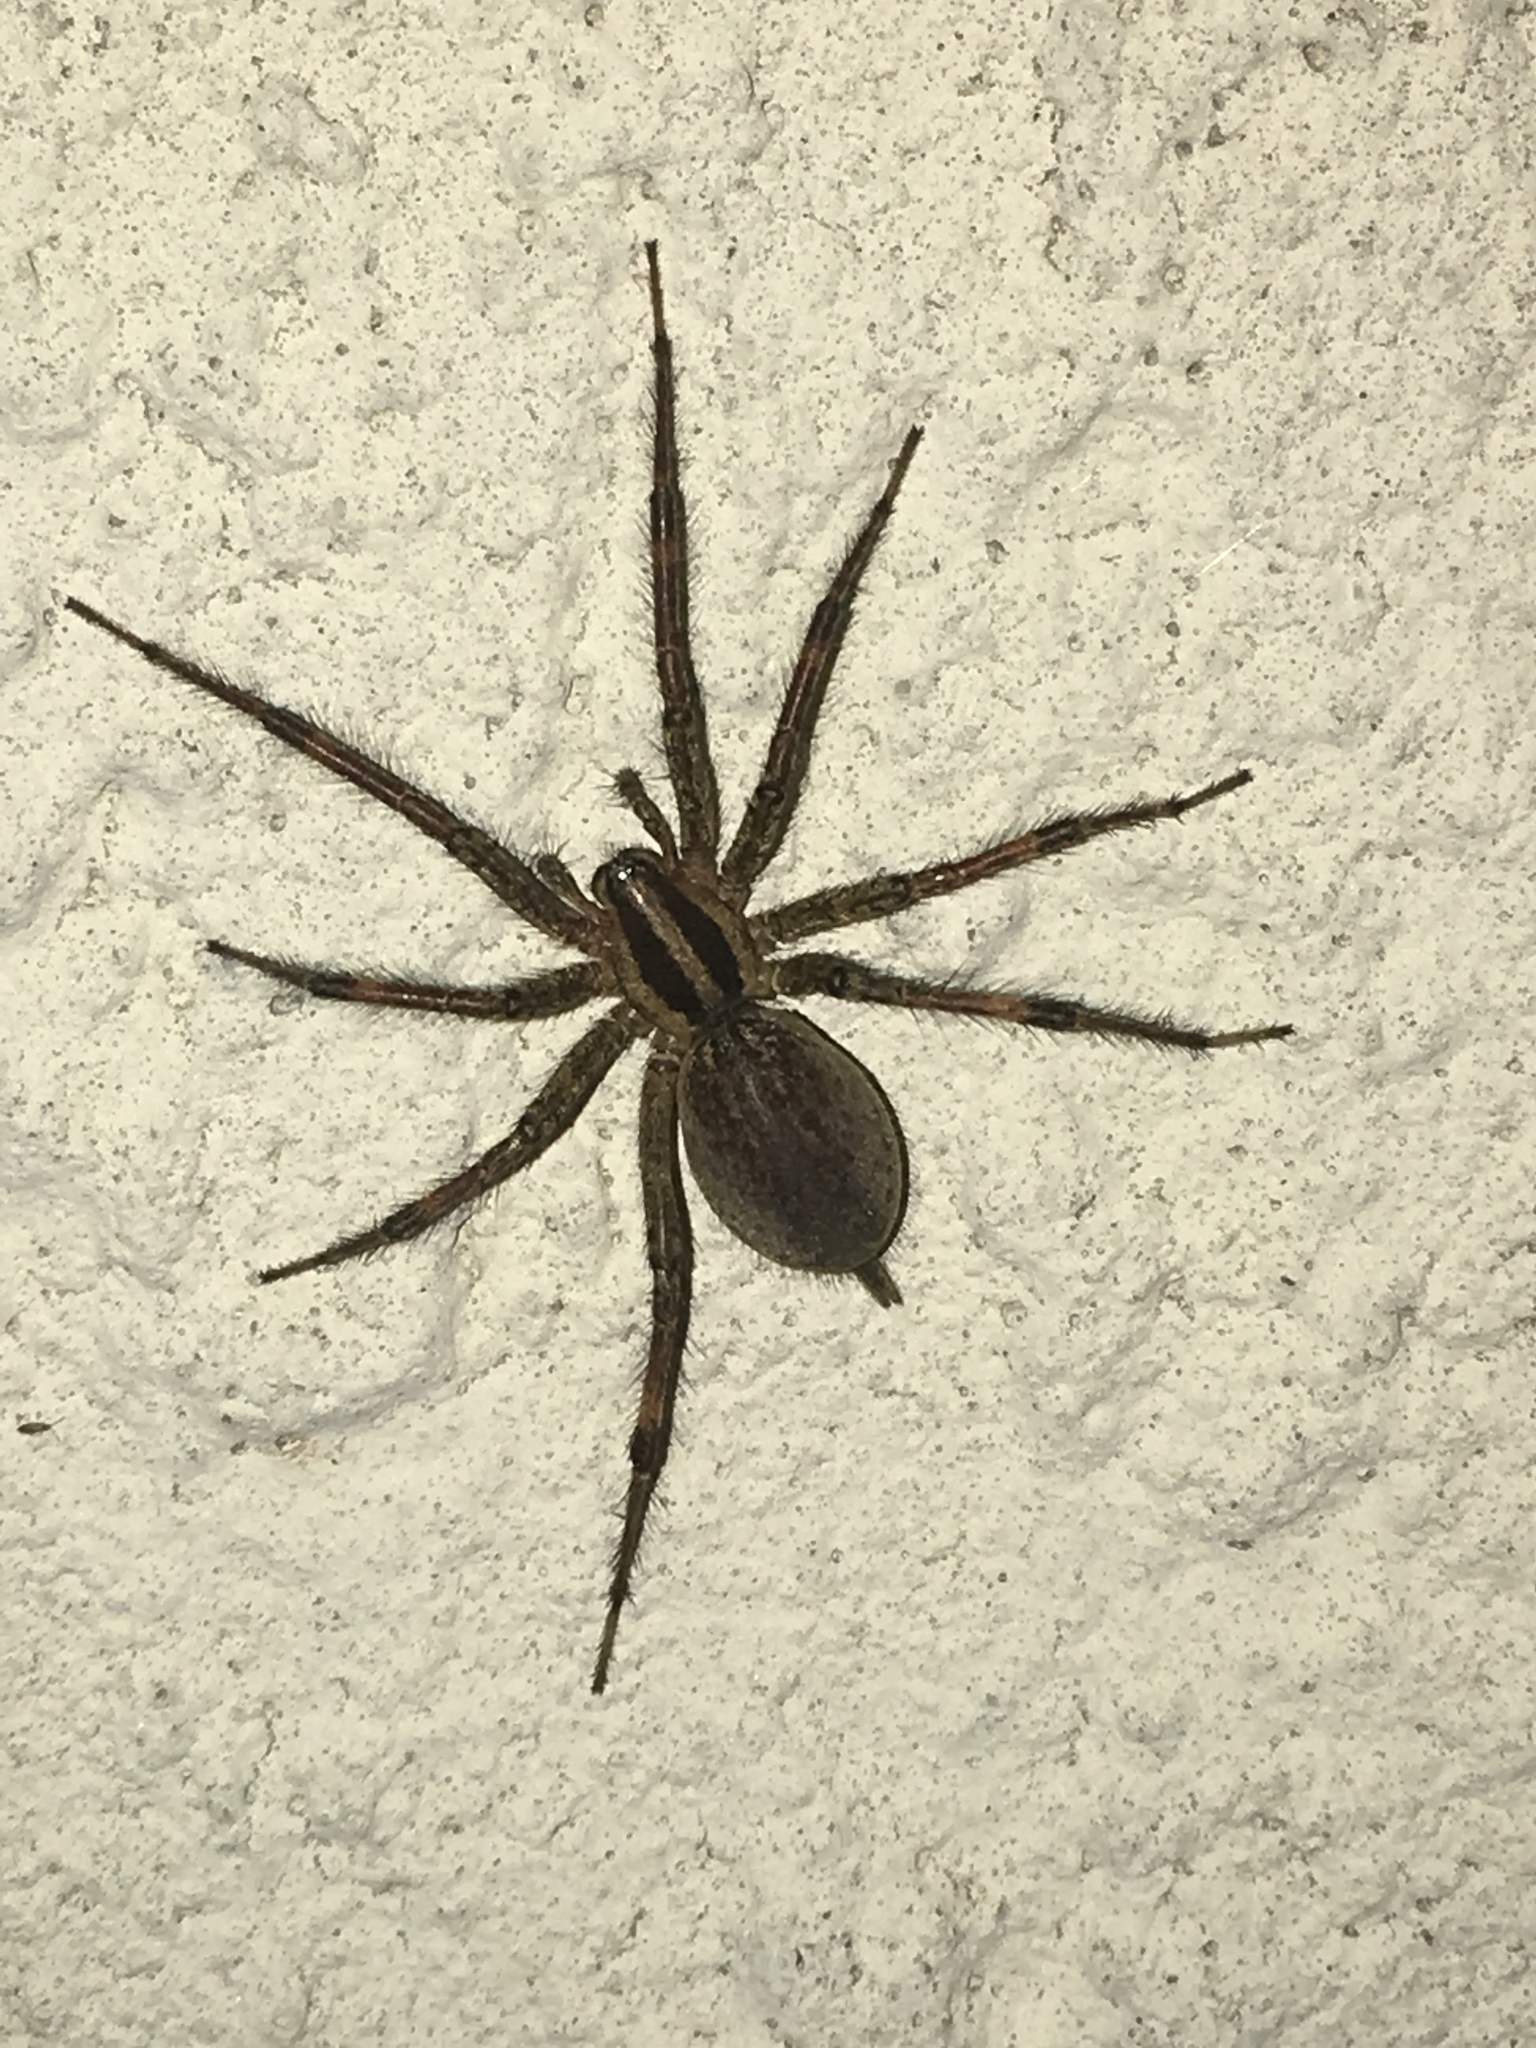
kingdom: Animalia
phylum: Arthropoda
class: Arachnida
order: Araneae
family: Agelenidae
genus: Agelenopsis
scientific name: Agelenopsis
